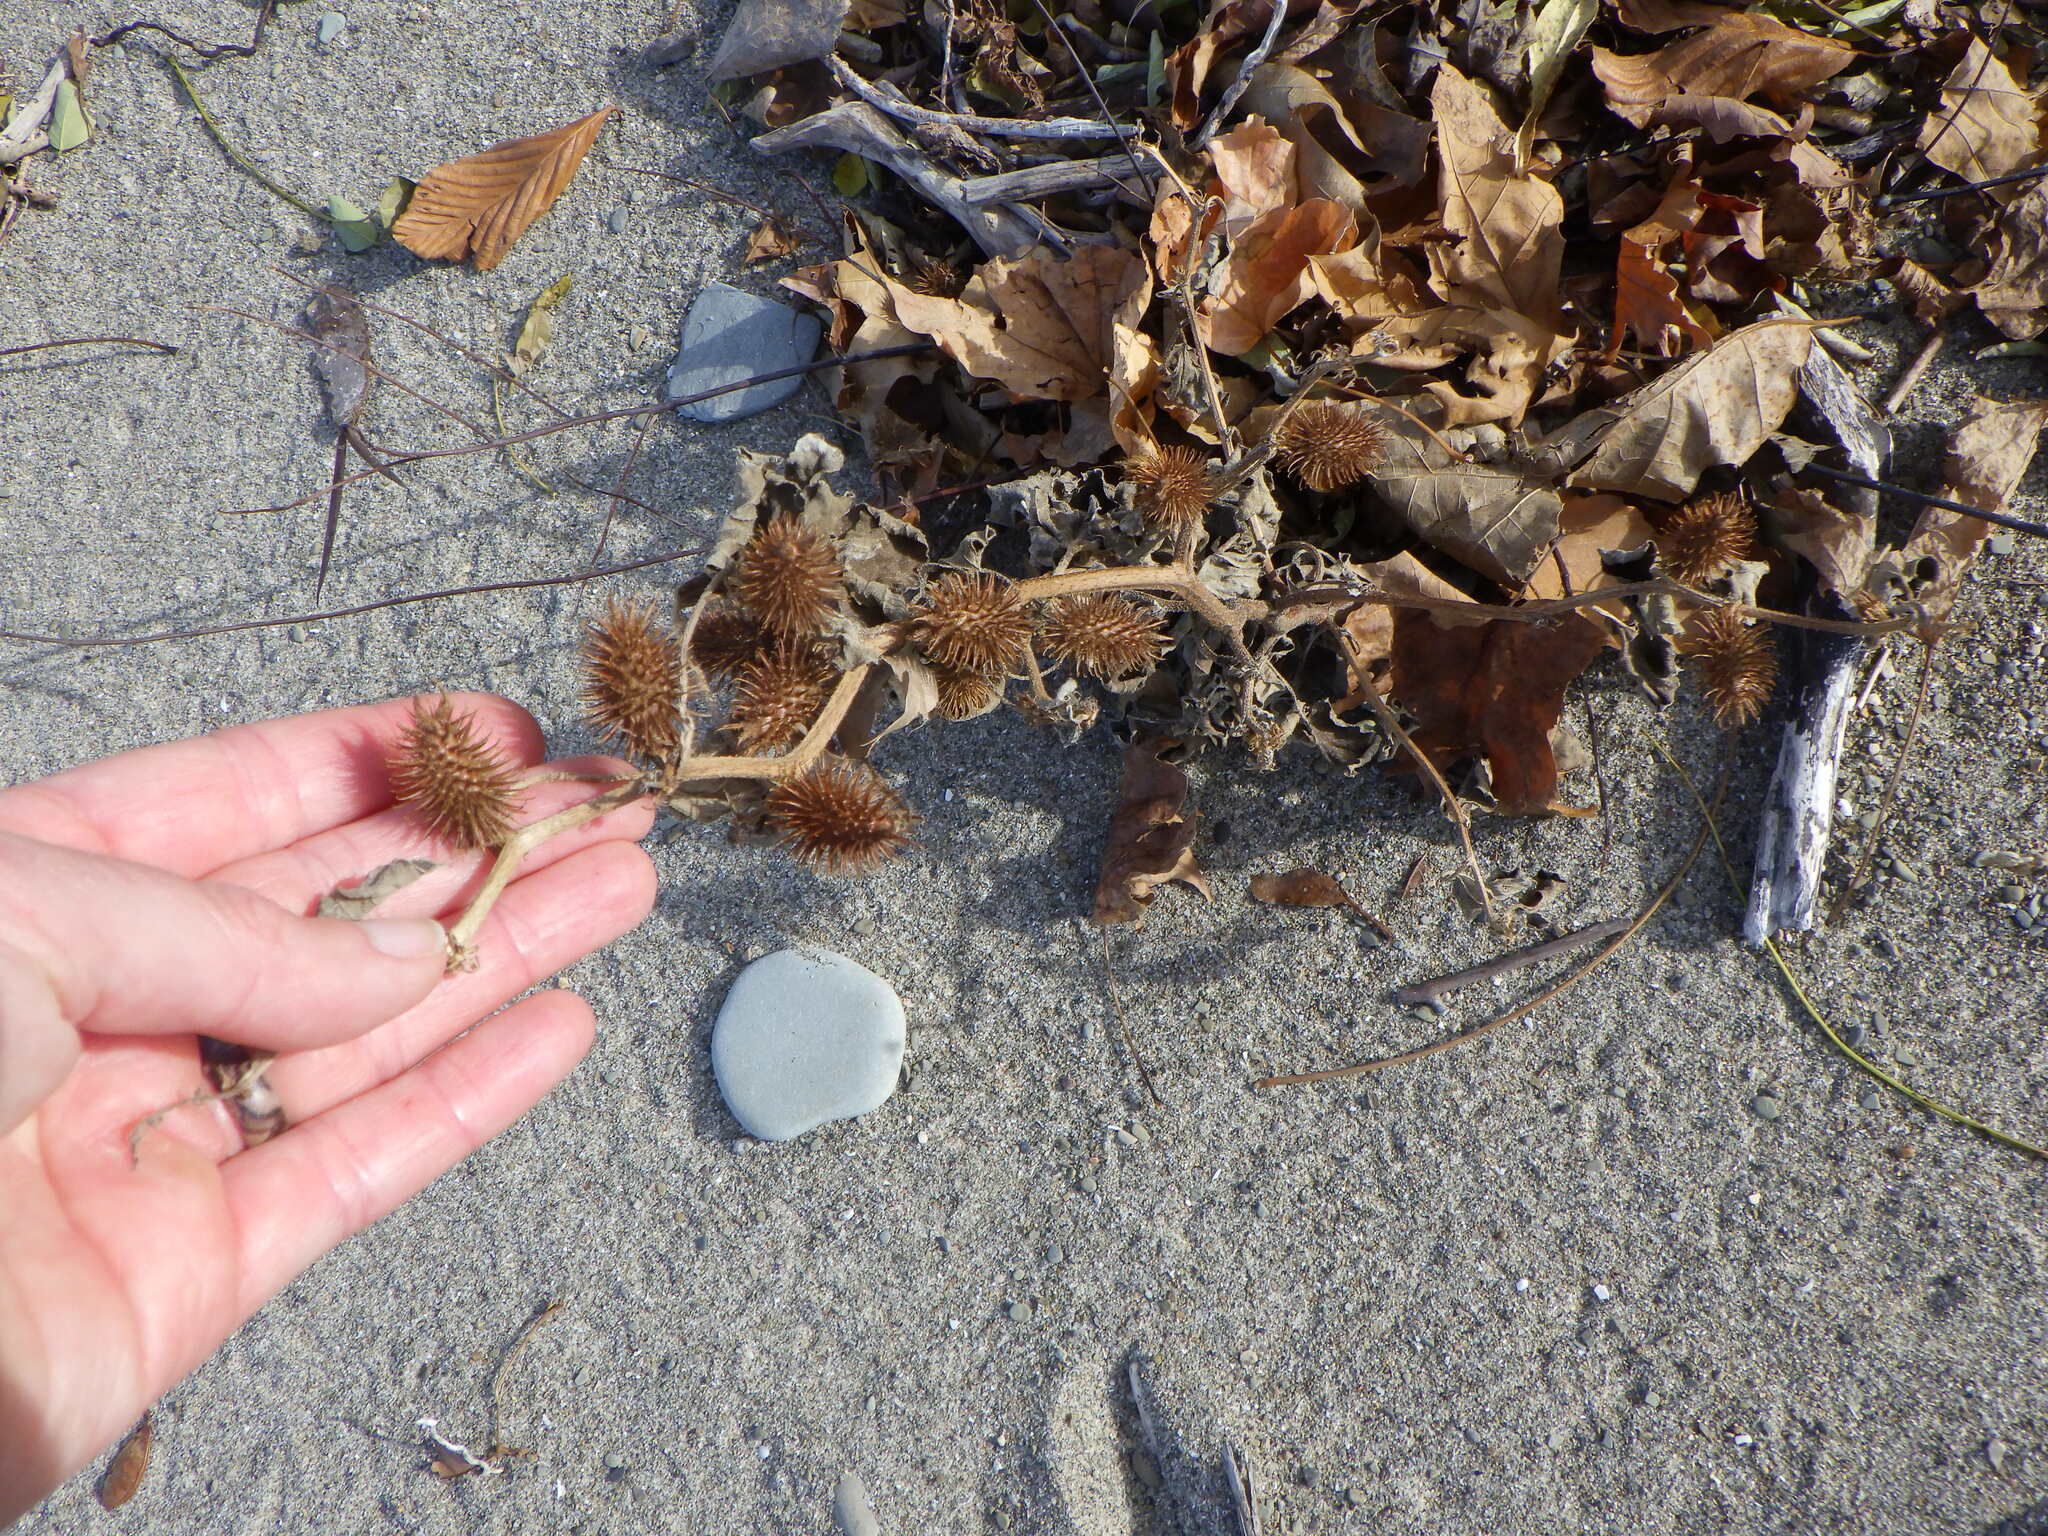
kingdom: Plantae
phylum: Tracheophyta
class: Magnoliopsida
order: Asterales
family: Asteraceae
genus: Xanthium
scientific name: Xanthium strumarium
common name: Rough cocklebur
